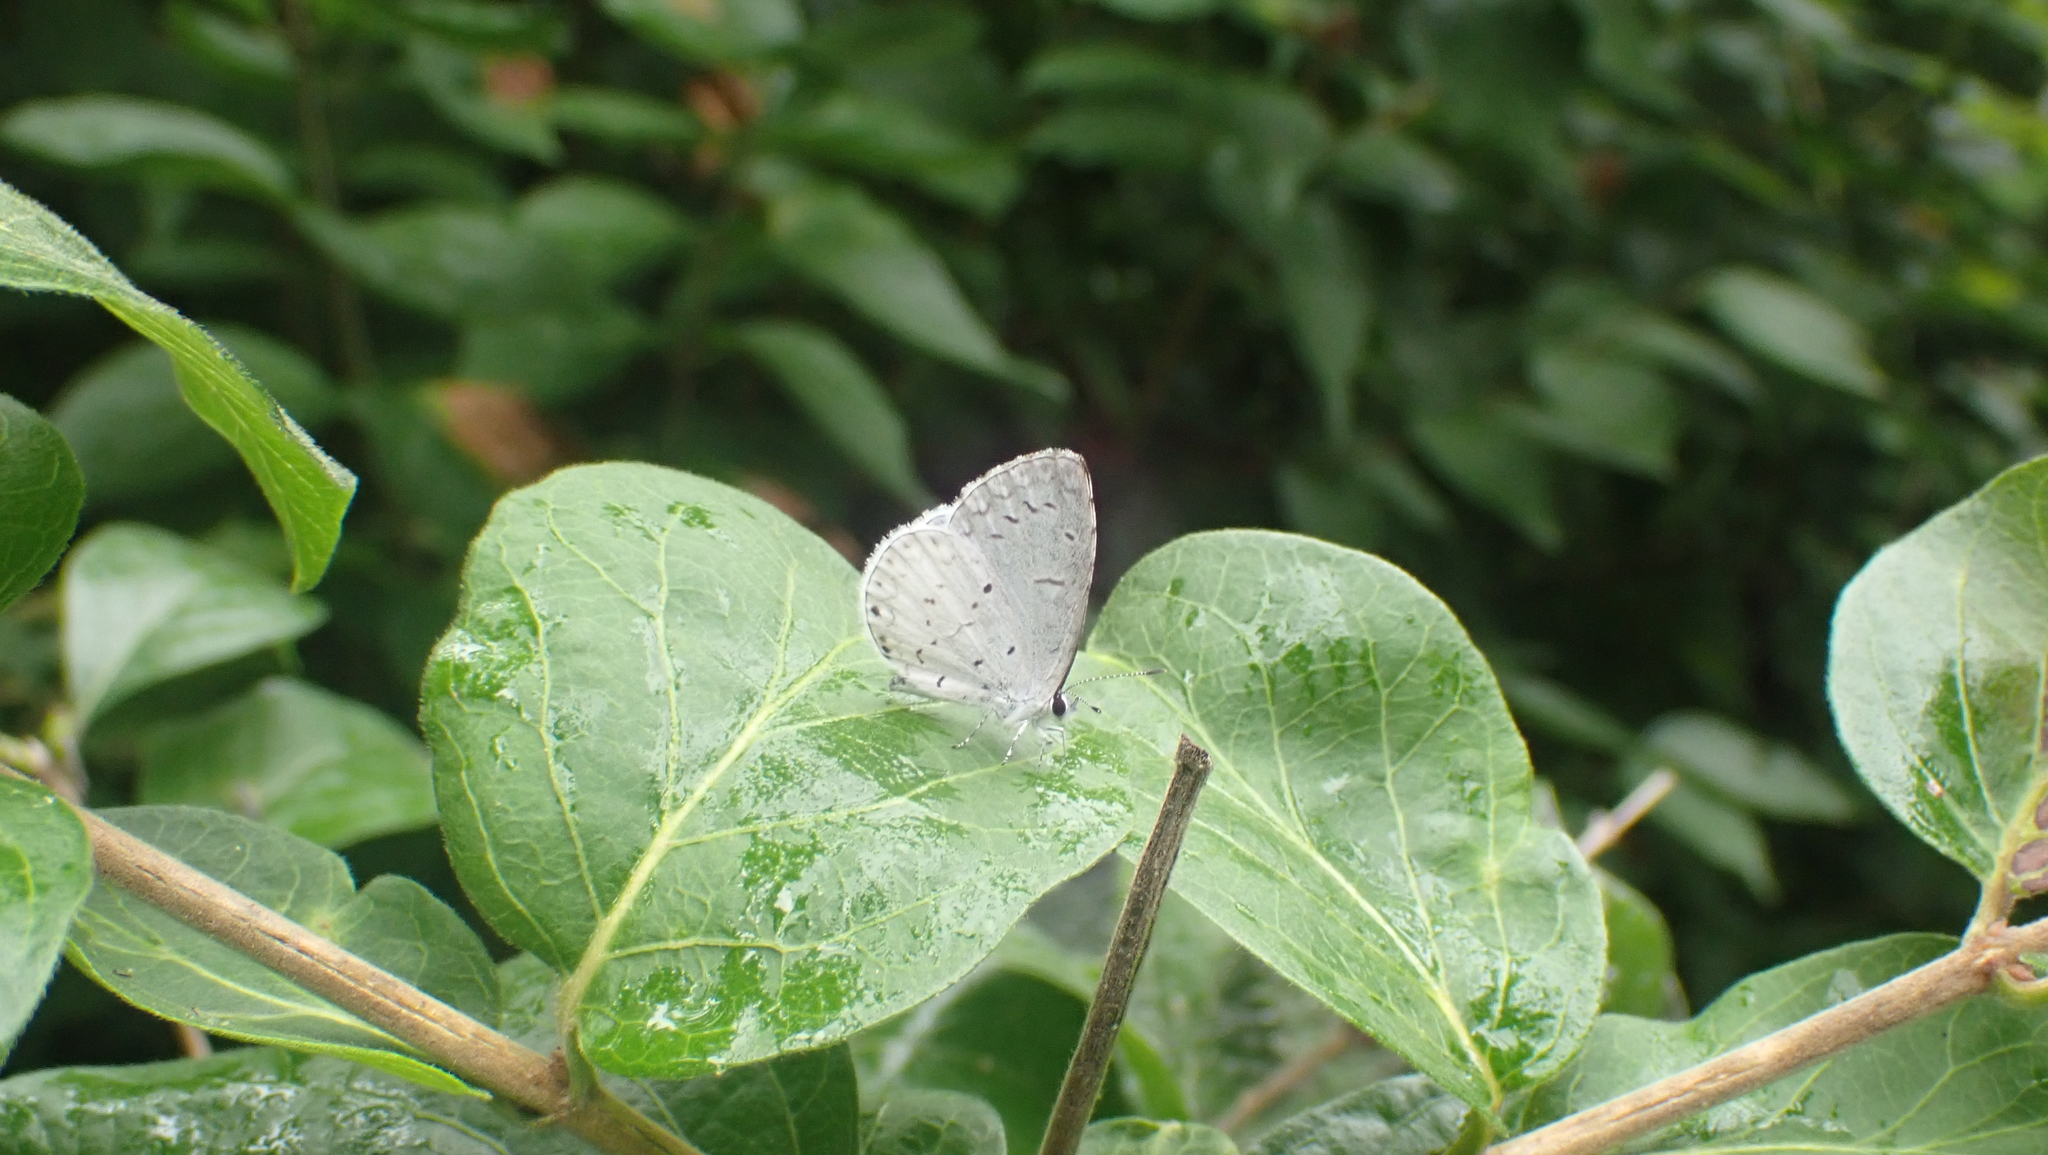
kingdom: Animalia
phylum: Arthropoda
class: Insecta
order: Lepidoptera
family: Lycaenidae
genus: Cyaniris
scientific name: Cyaniris neglecta
